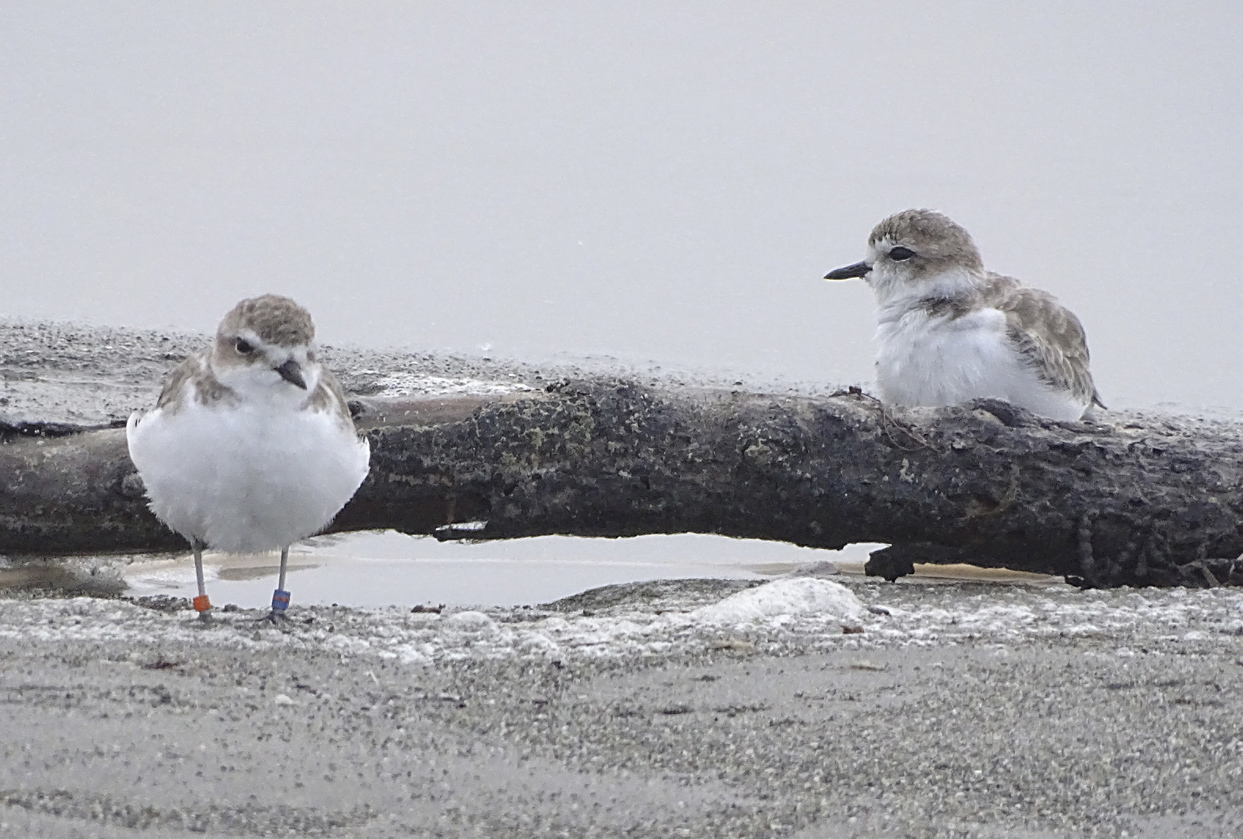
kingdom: Animalia
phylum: Chordata
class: Aves
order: Charadriiformes
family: Charadriidae
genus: Anarhynchus
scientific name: Anarhynchus
